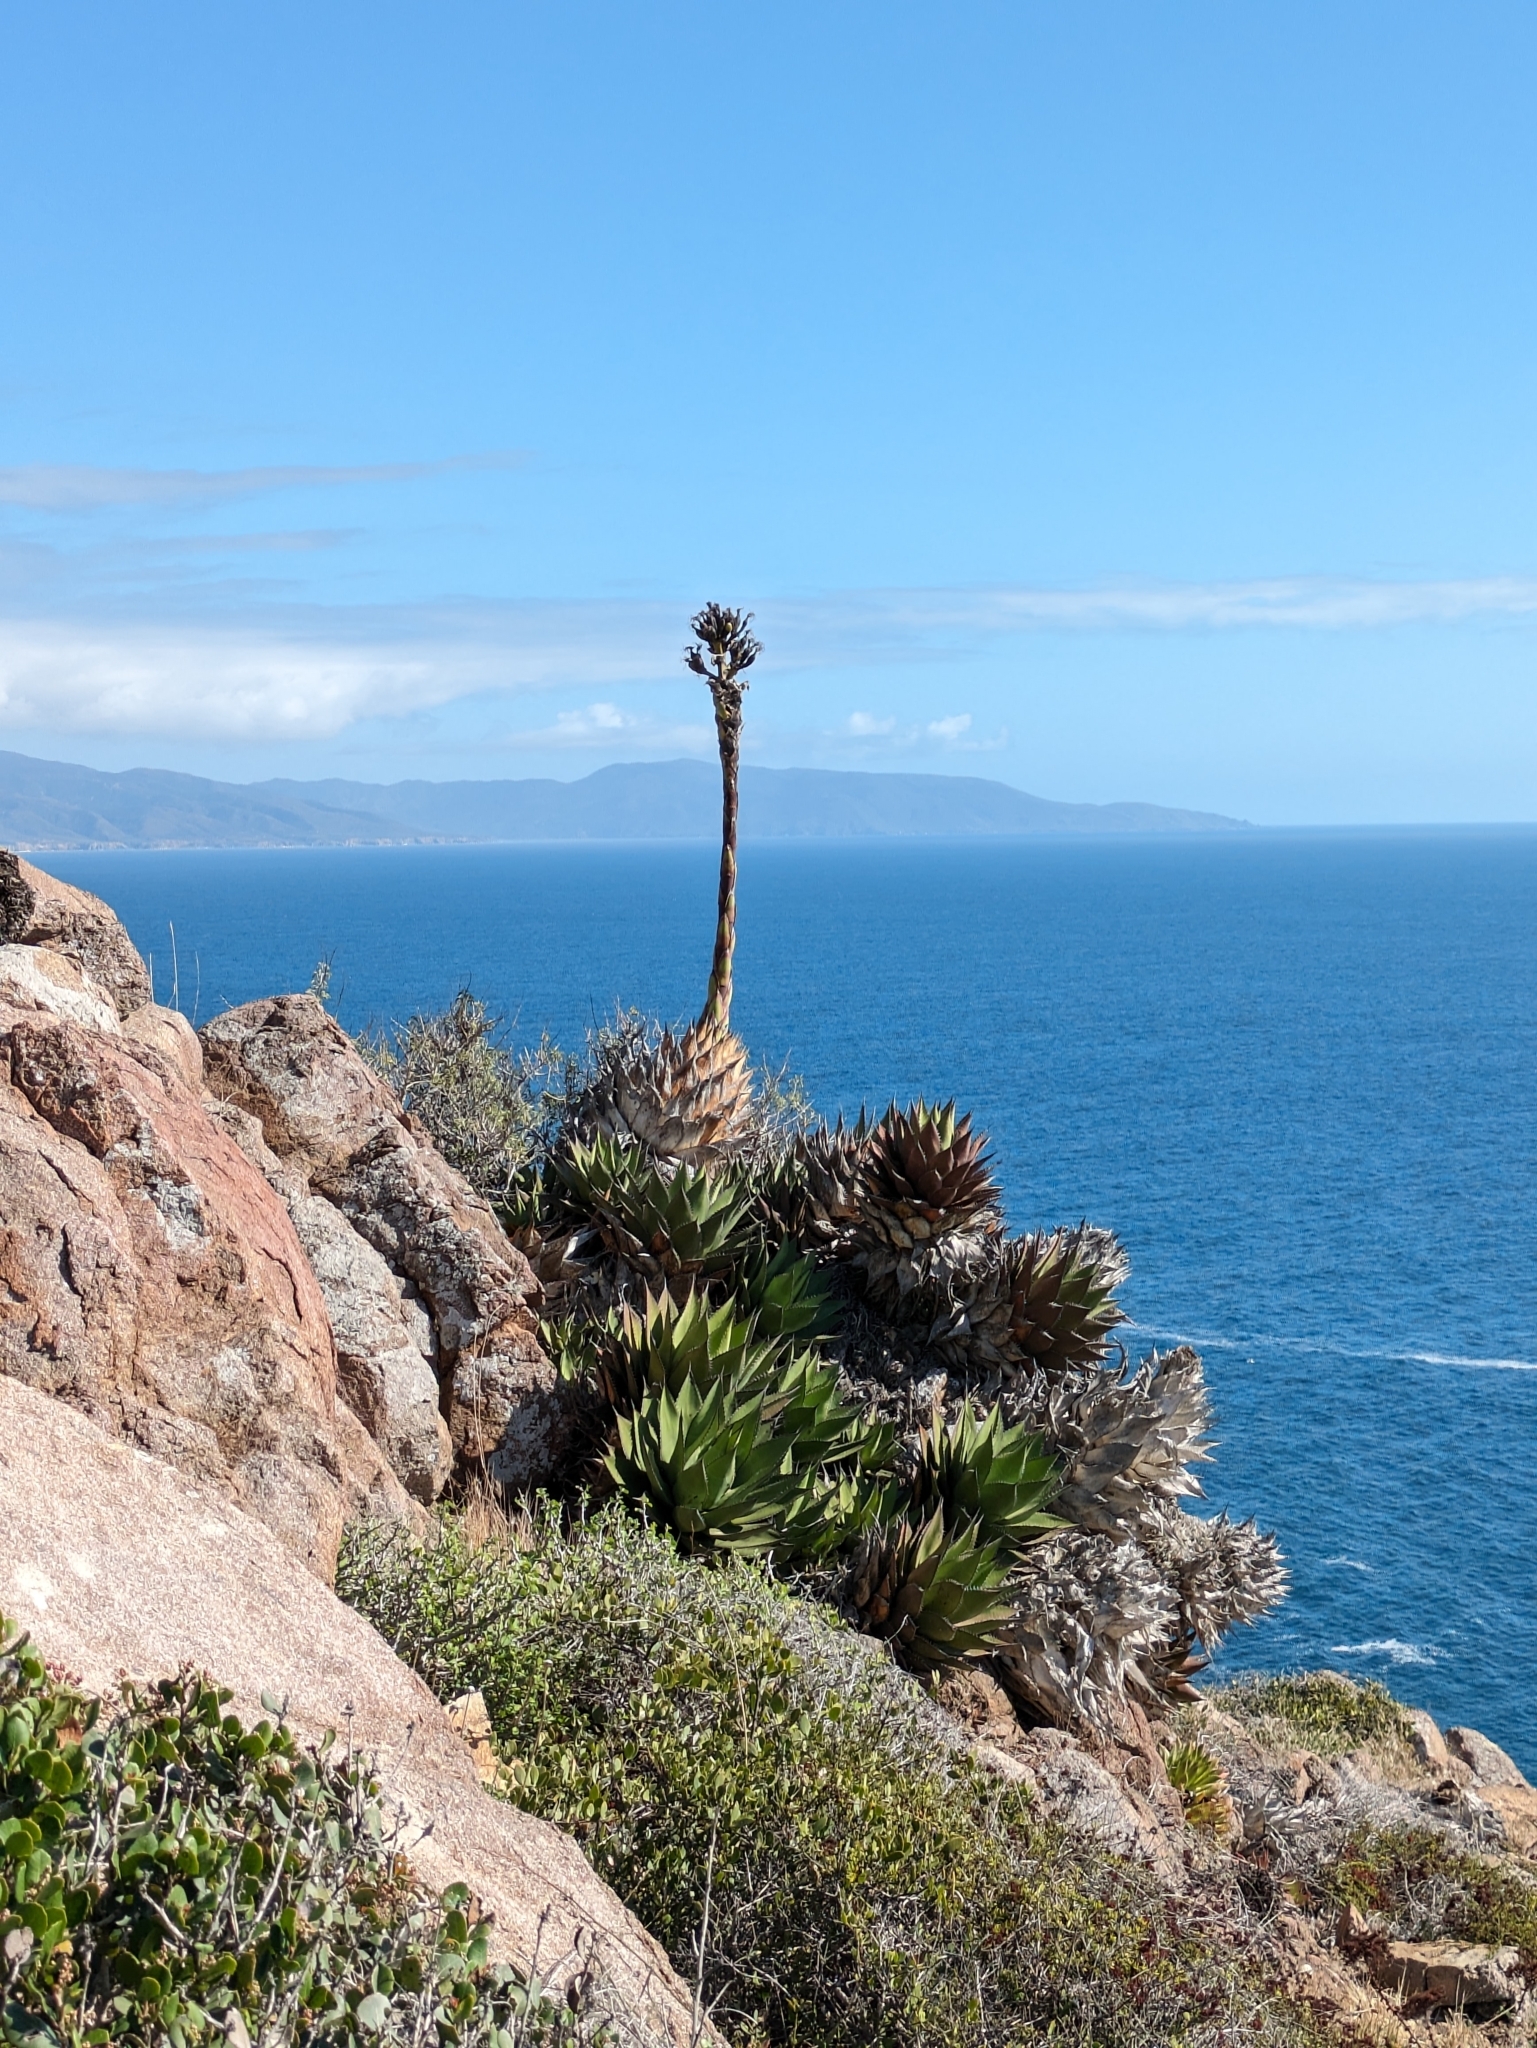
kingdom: Plantae
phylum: Tracheophyta
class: Liliopsida
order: Asparagales
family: Asparagaceae
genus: Agave
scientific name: Agave shawii
